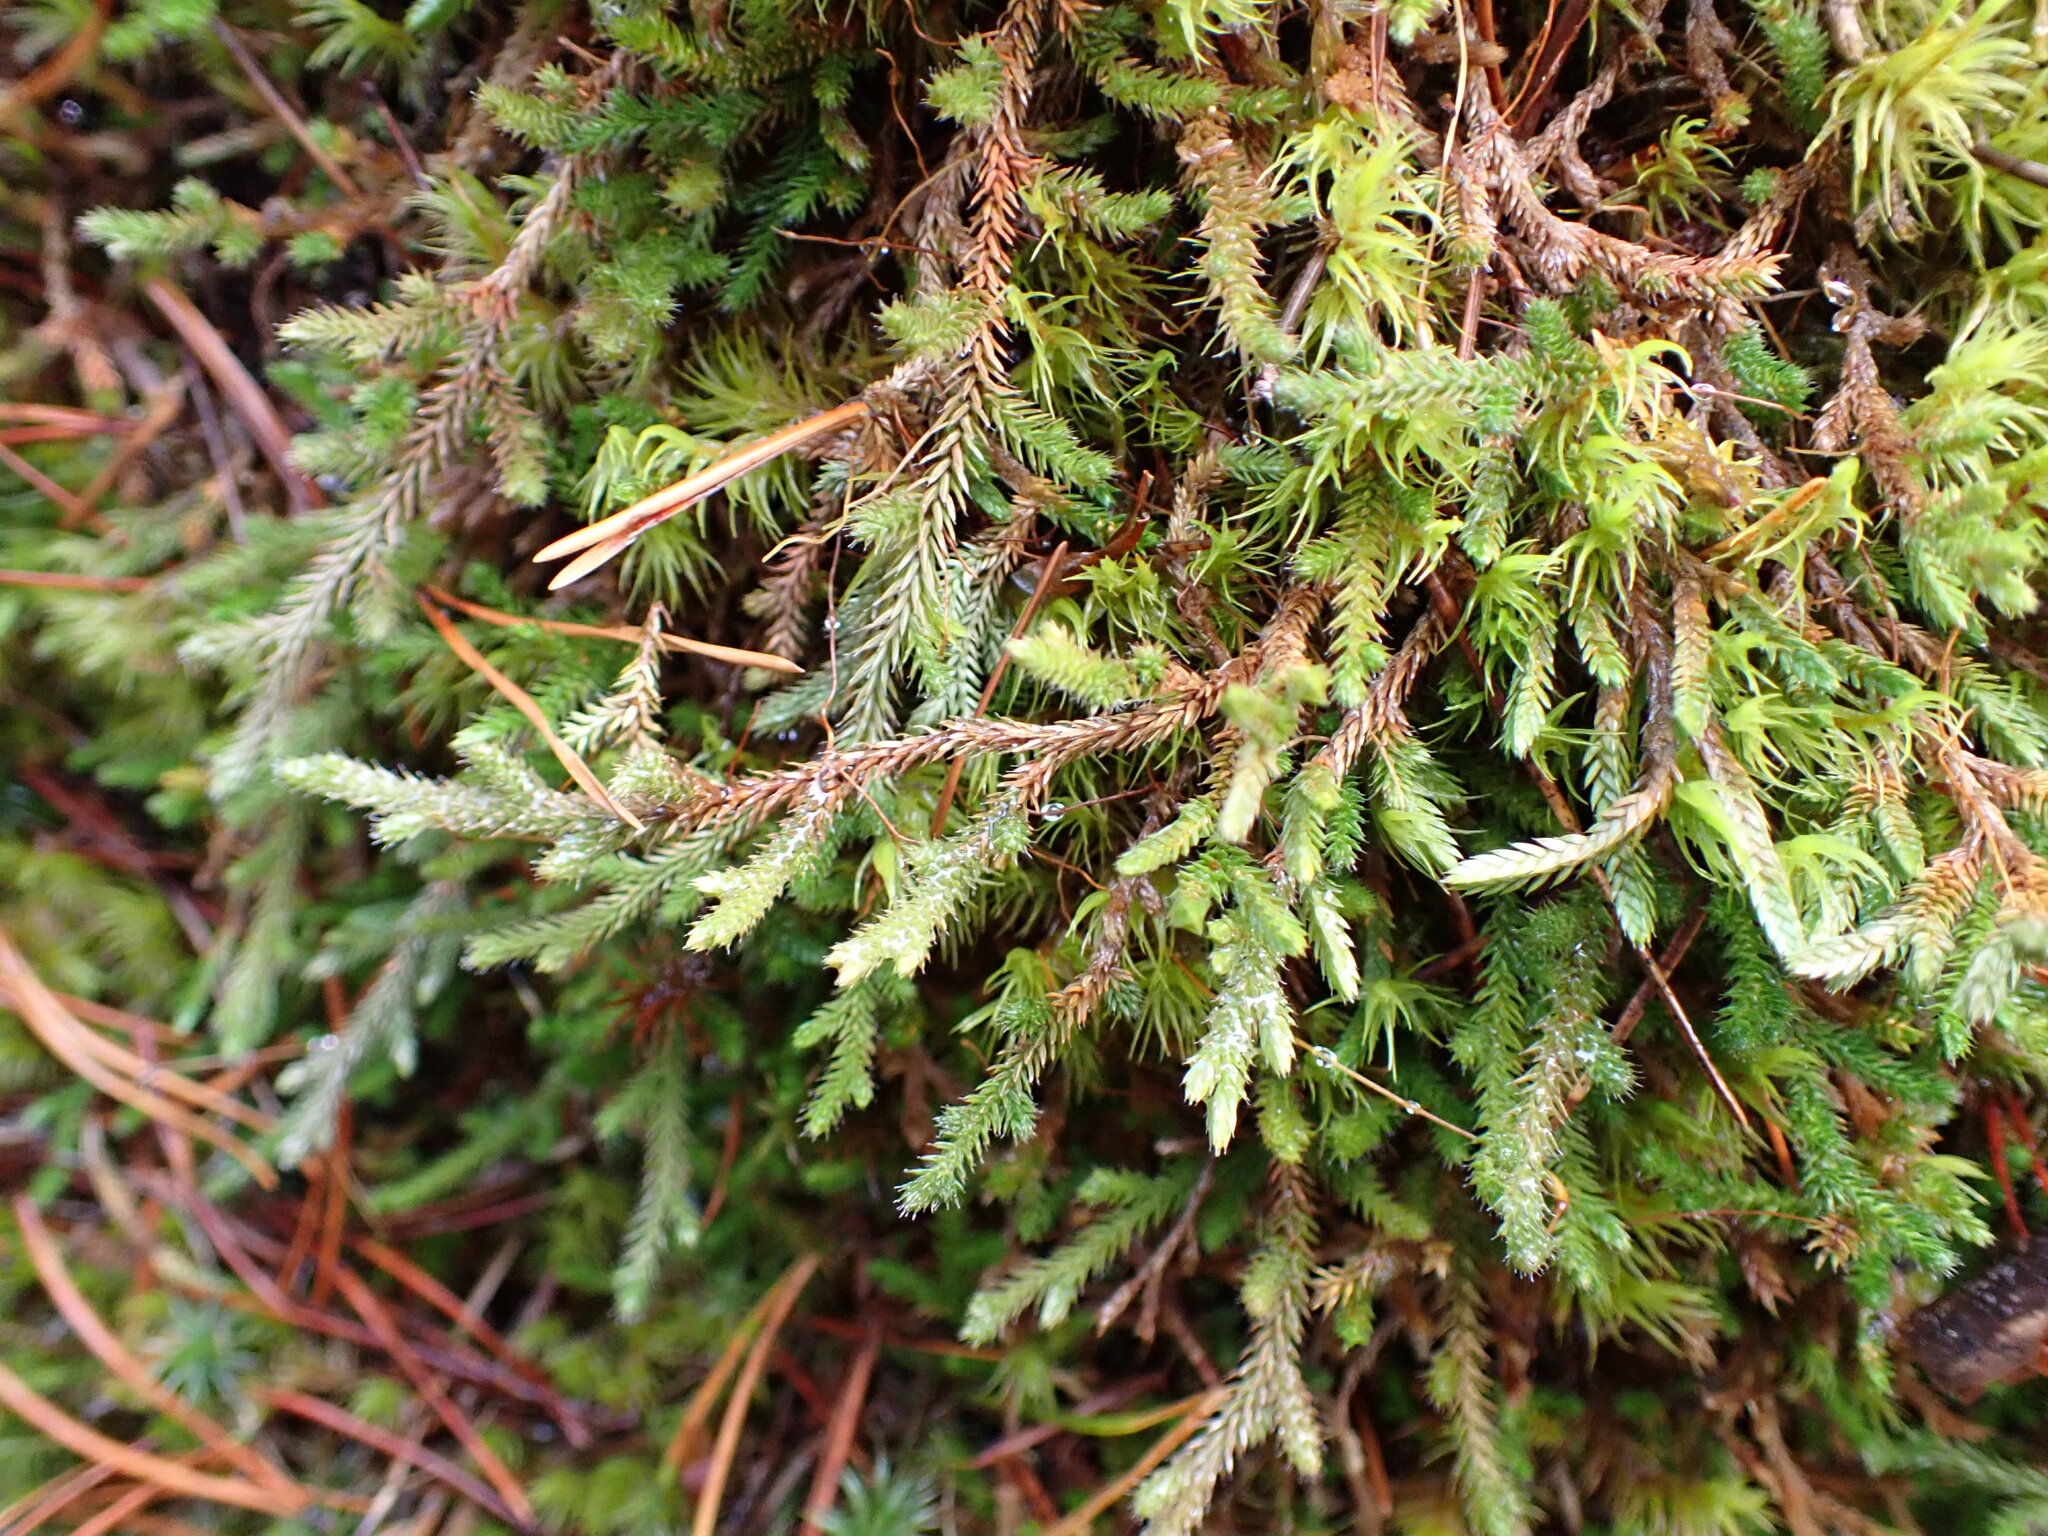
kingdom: Plantae
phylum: Tracheophyta
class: Lycopodiopsida
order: Selaginellales
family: Selaginellaceae
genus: Selaginella
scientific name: Selaginella wallacei
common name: Wallace's selaginella
